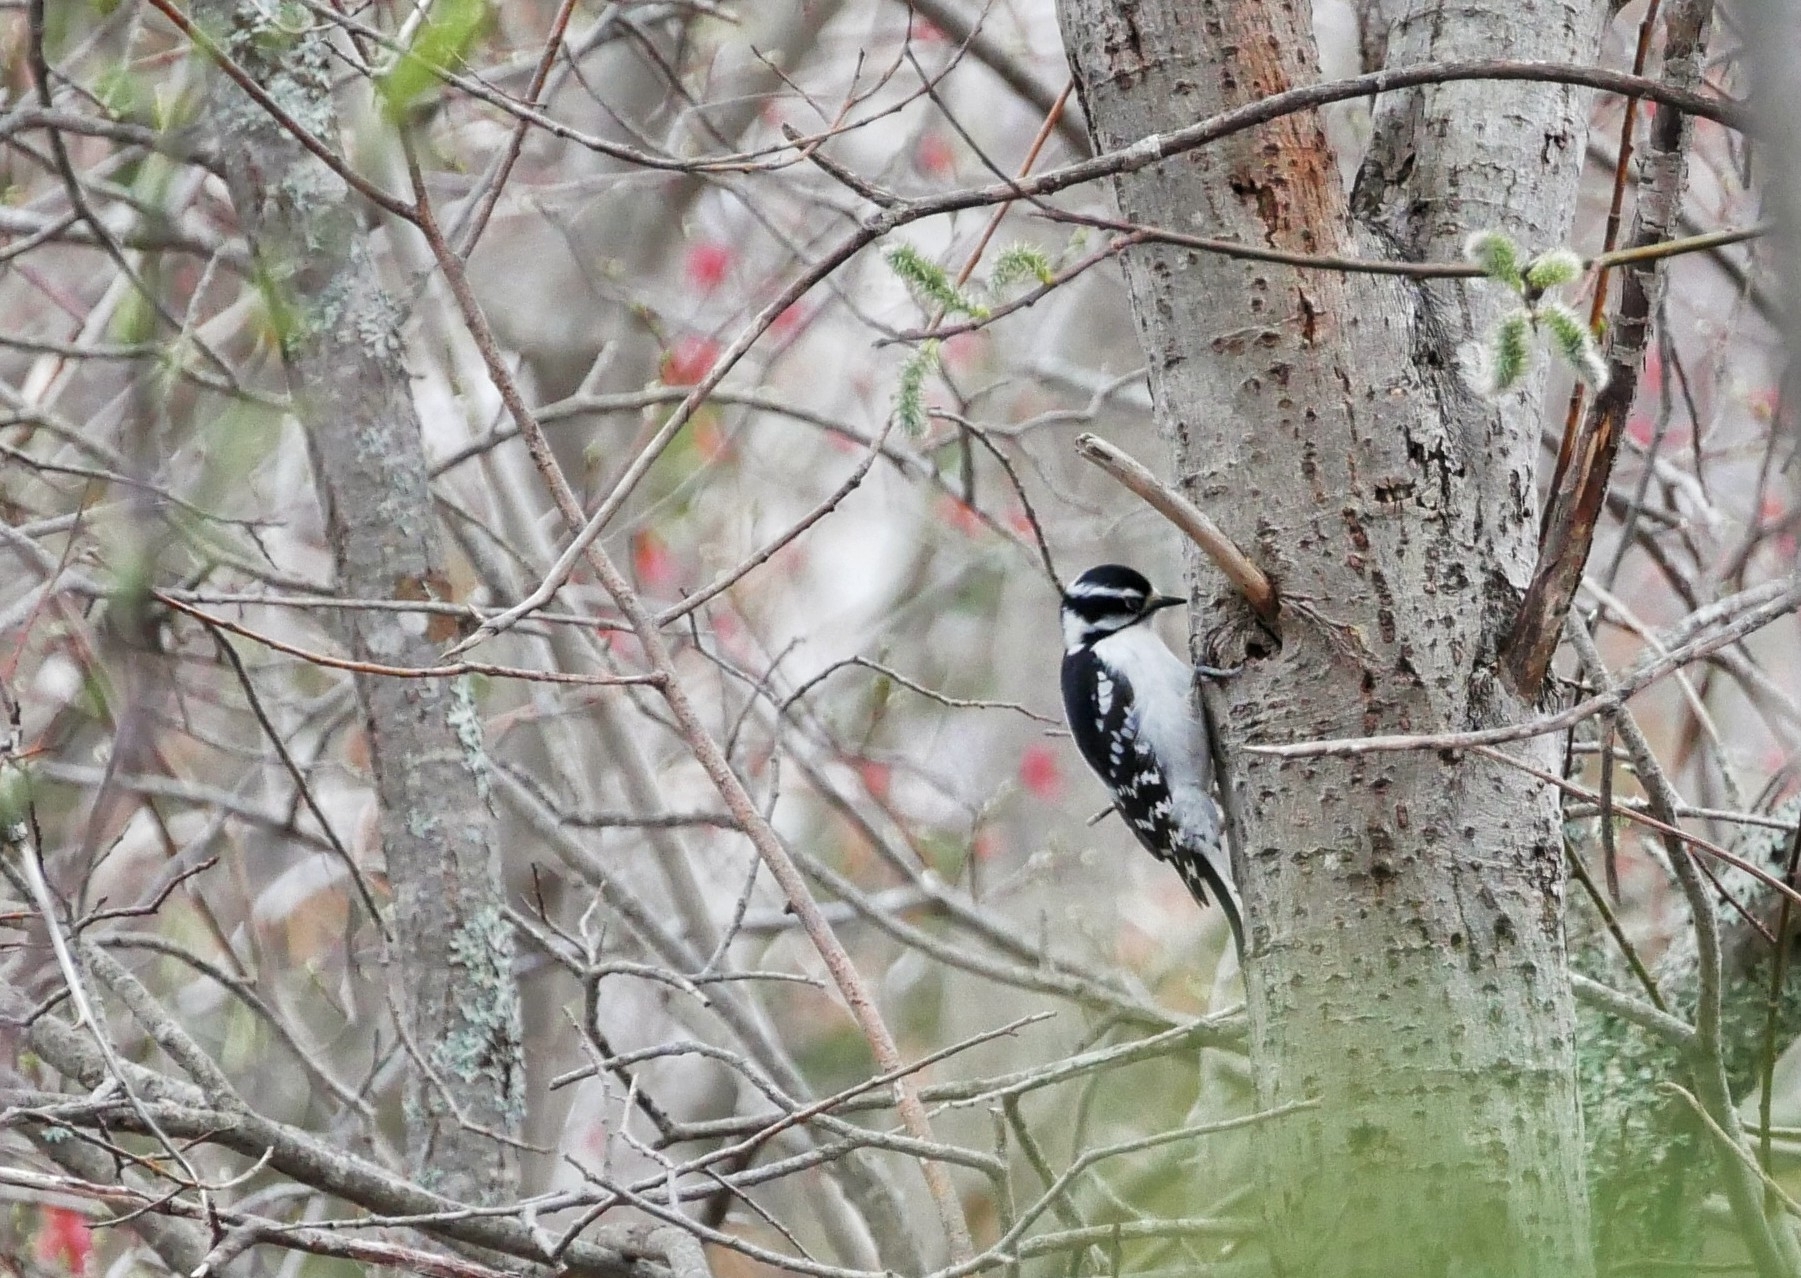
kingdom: Animalia
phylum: Chordata
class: Aves
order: Piciformes
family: Picidae
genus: Dryobates
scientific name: Dryobates pubescens
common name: Downy woodpecker
